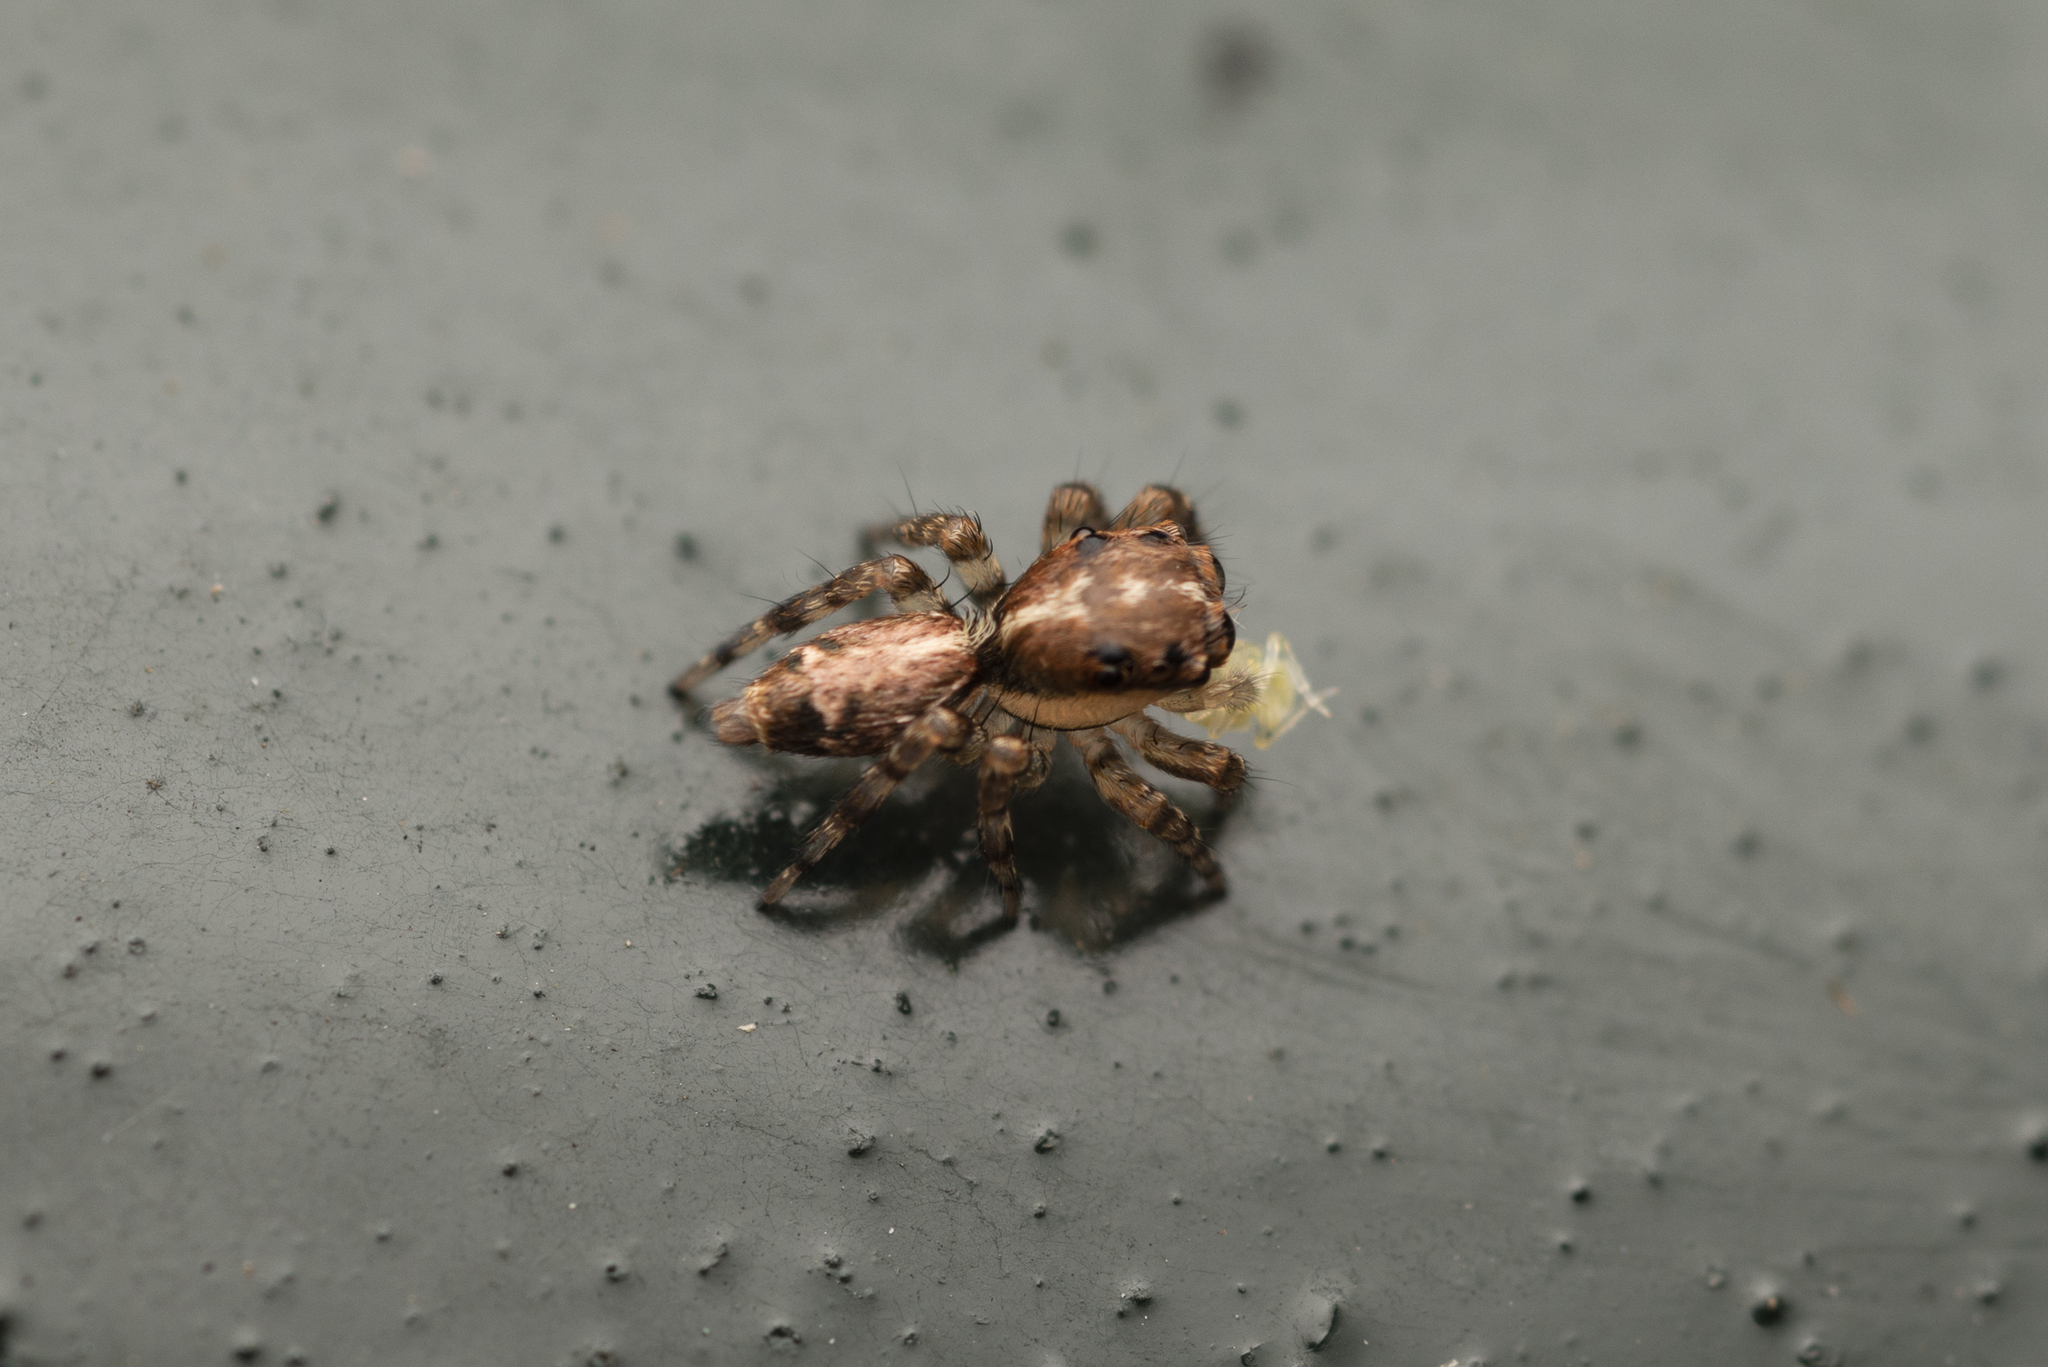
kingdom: Animalia
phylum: Arthropoda
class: Arachnida
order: Araneae
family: Salticidae
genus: Thyene
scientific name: Thyene orientalis
